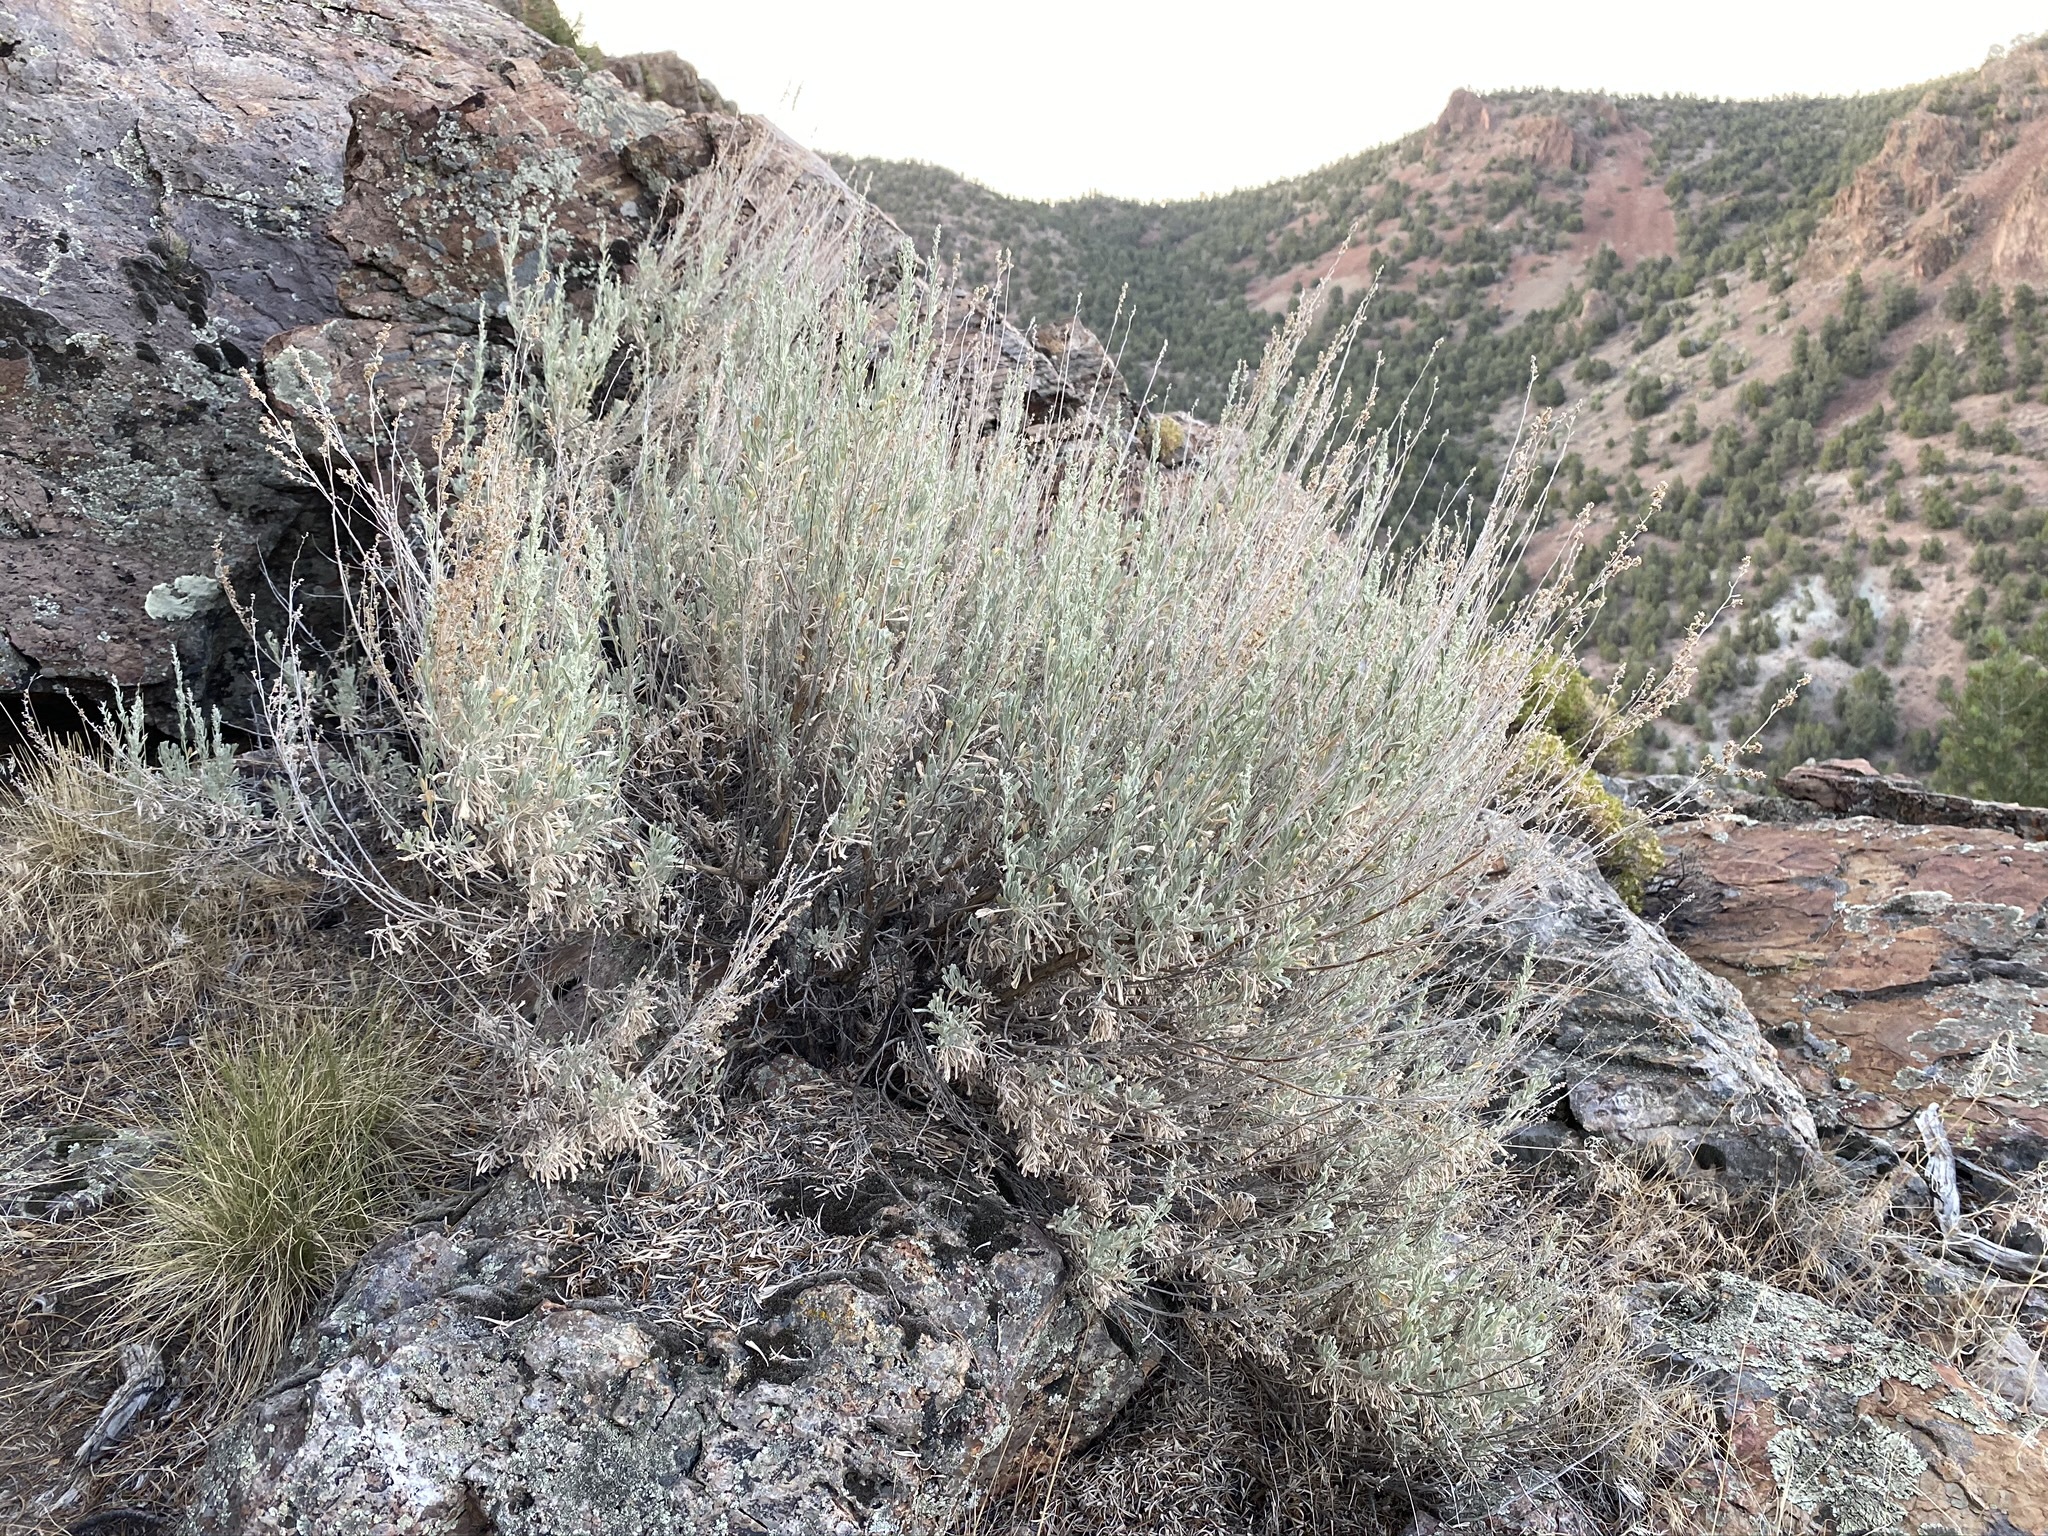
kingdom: Plantae
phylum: Tracheophyta
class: Magnoliopsida
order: Asterales
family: Asteraceae
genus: Artemisia
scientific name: Artemisia tridentata
